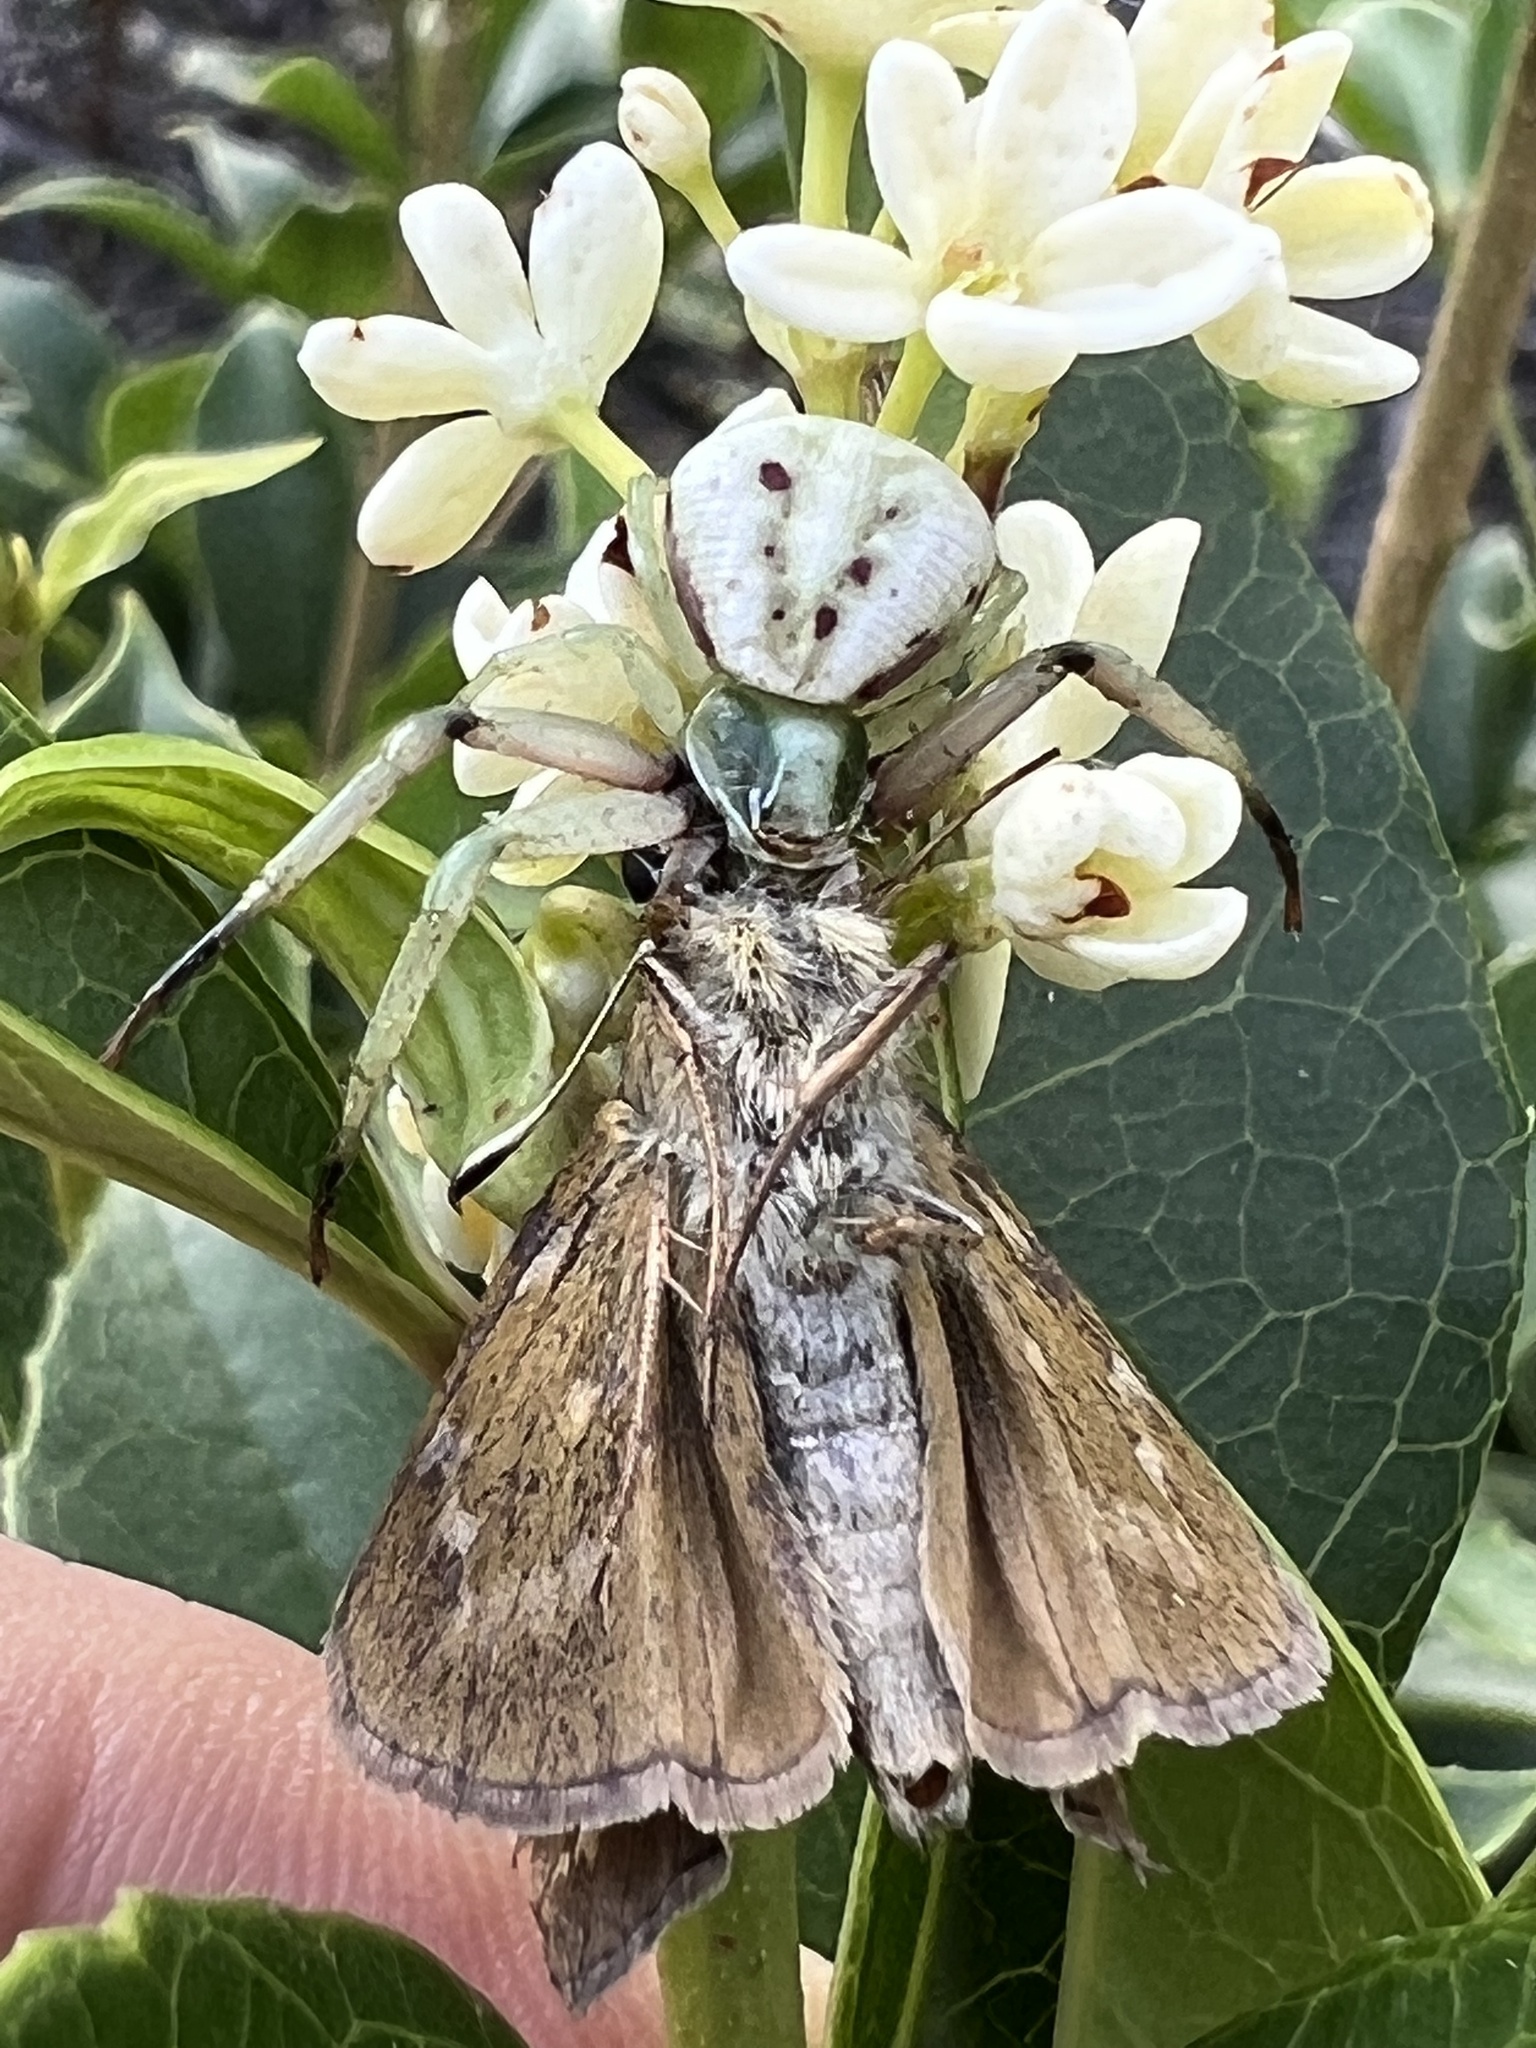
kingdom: Animalia
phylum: Arthropoda
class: Insecta
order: Lepidoptera
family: Hesperiidae
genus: Atalopedes
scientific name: Atalopedes
